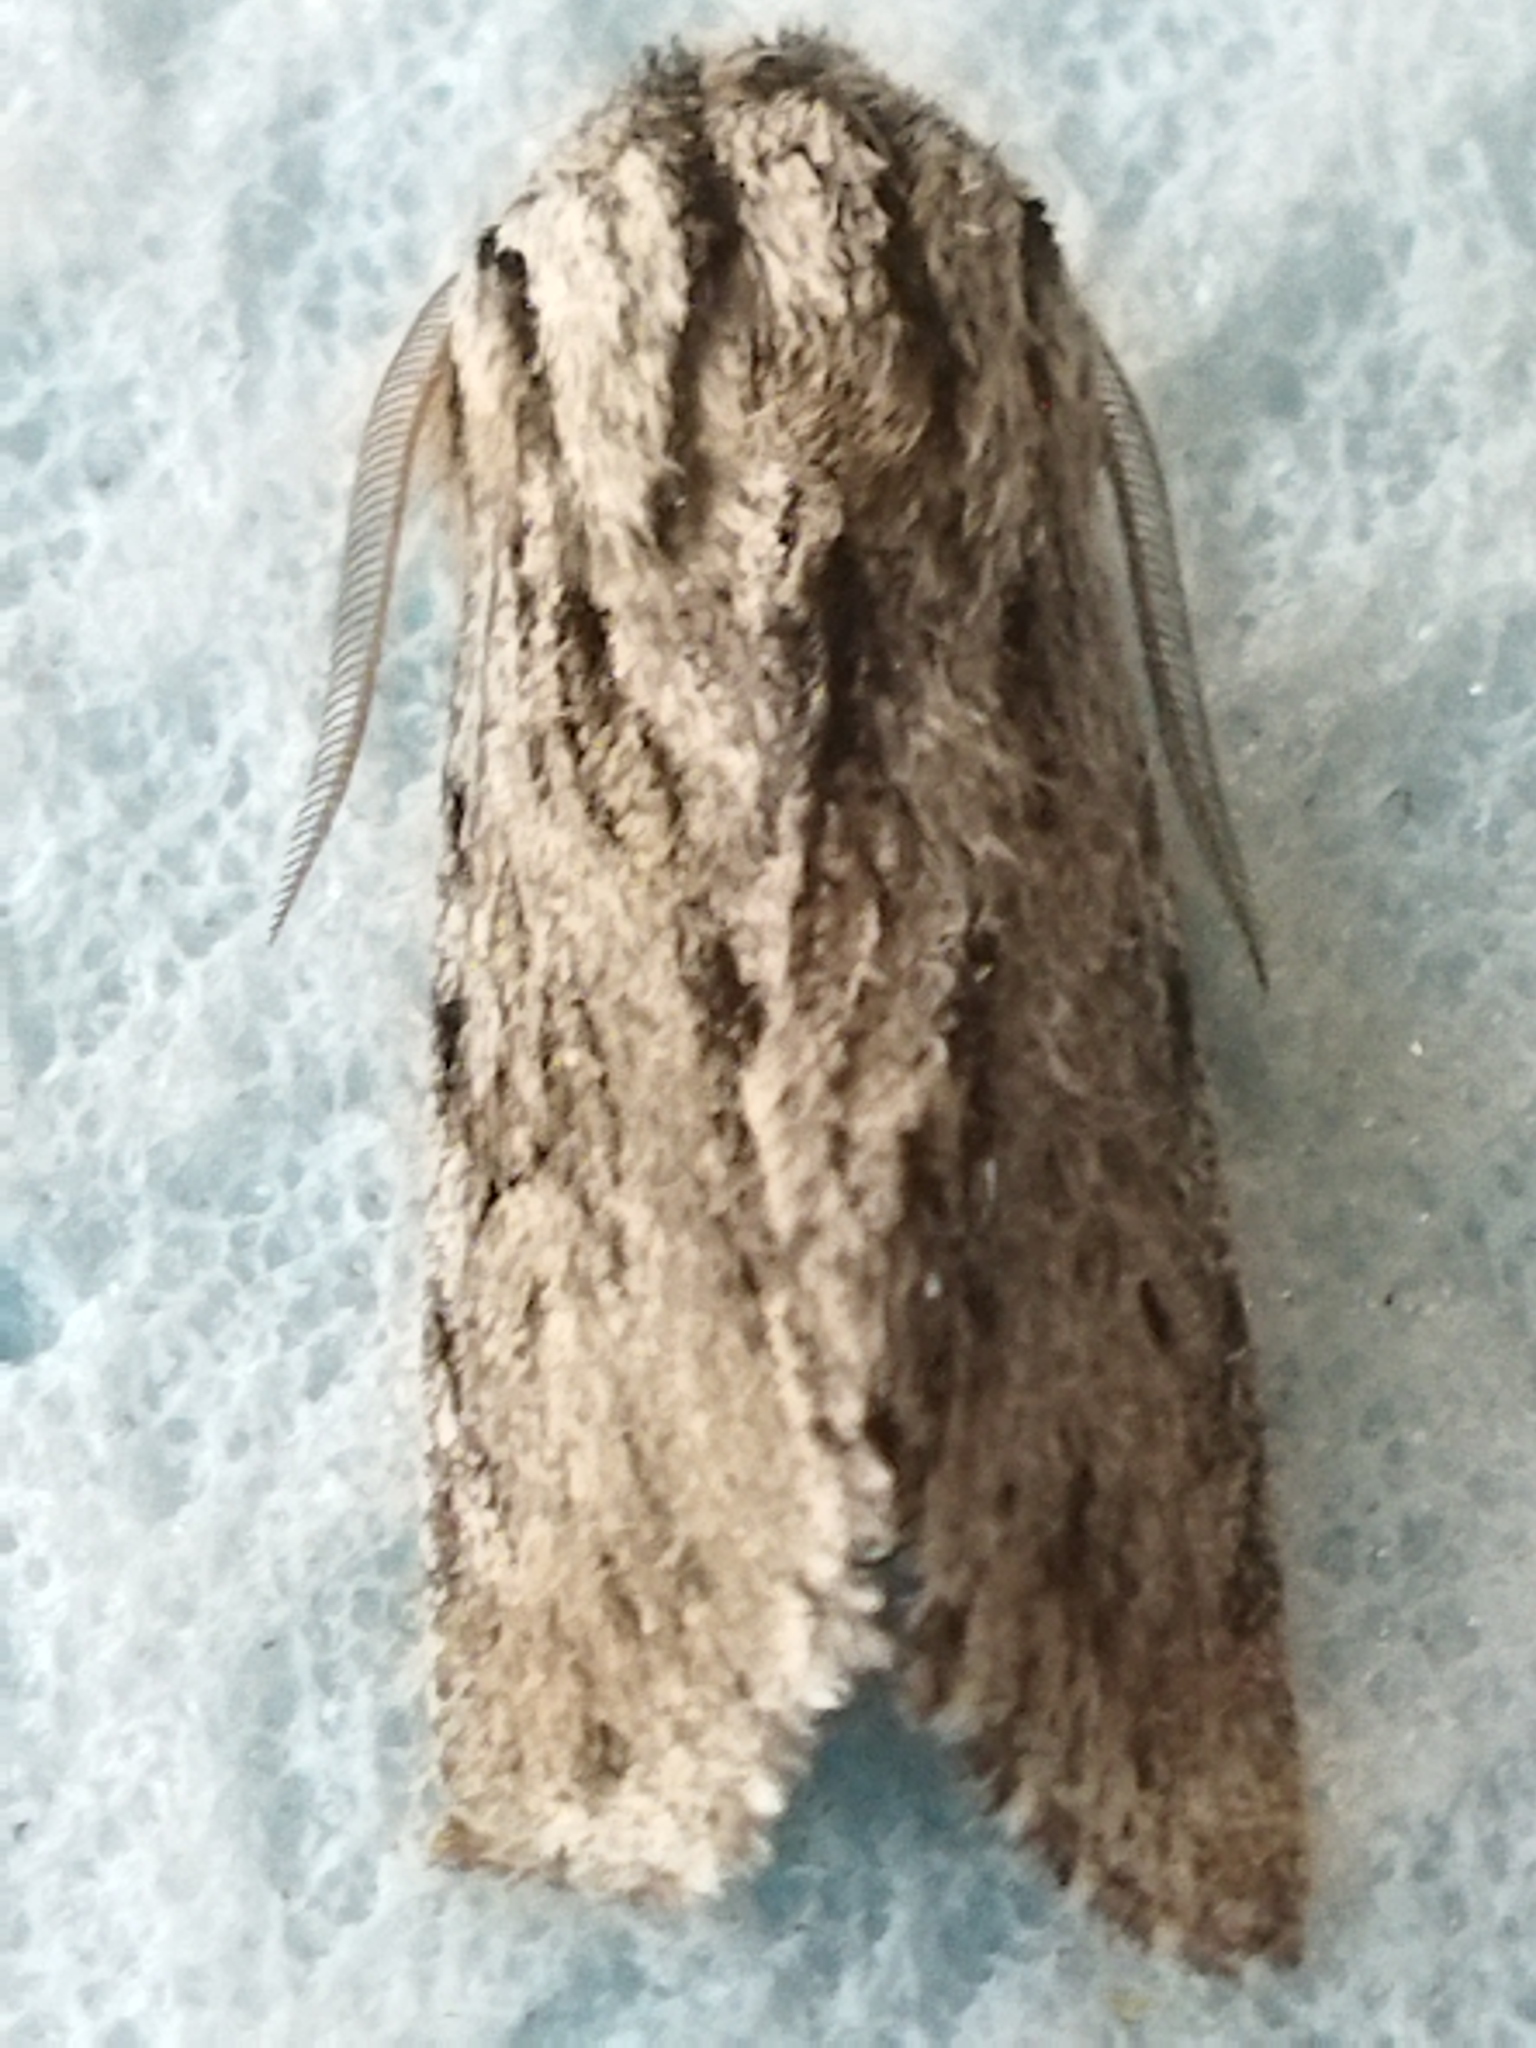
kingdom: Animalia
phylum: Arthropoda
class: Insecta
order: Lepidoptera
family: Noctuidae
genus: Asteroscopus
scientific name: Asteroscopus sphinx
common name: The sprawler
